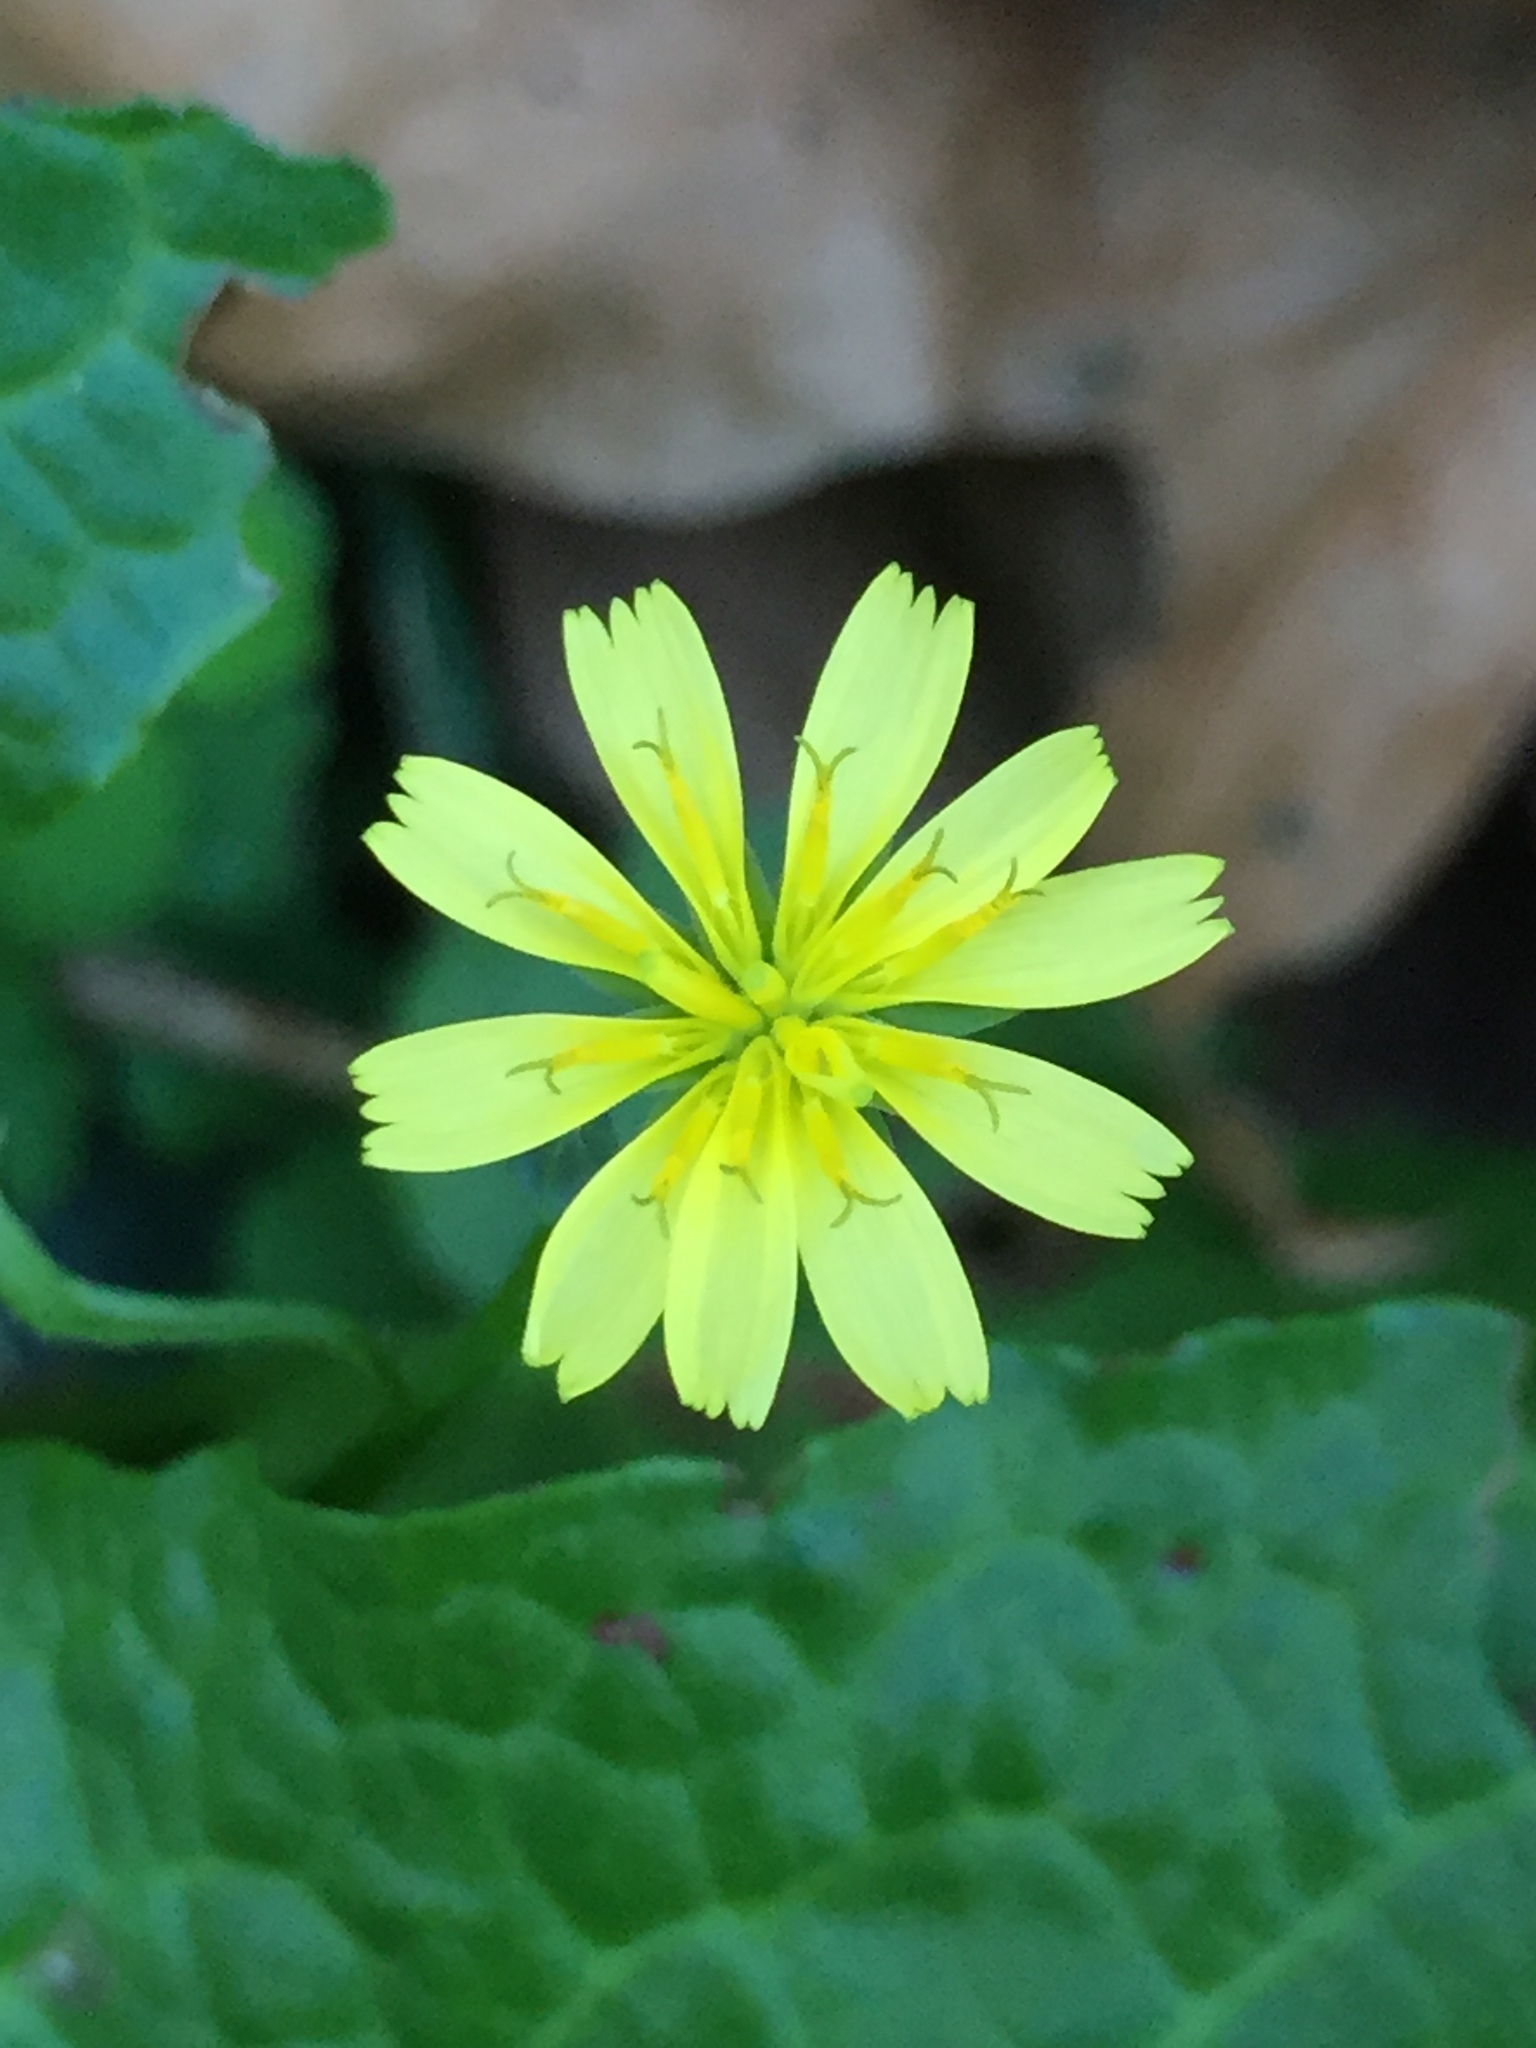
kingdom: Plantae
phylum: Tracheophyta
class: Magnoliopsida
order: Asterales
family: Asteraceae
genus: Lapsana
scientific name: Lapsana communis
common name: Nipplewort
